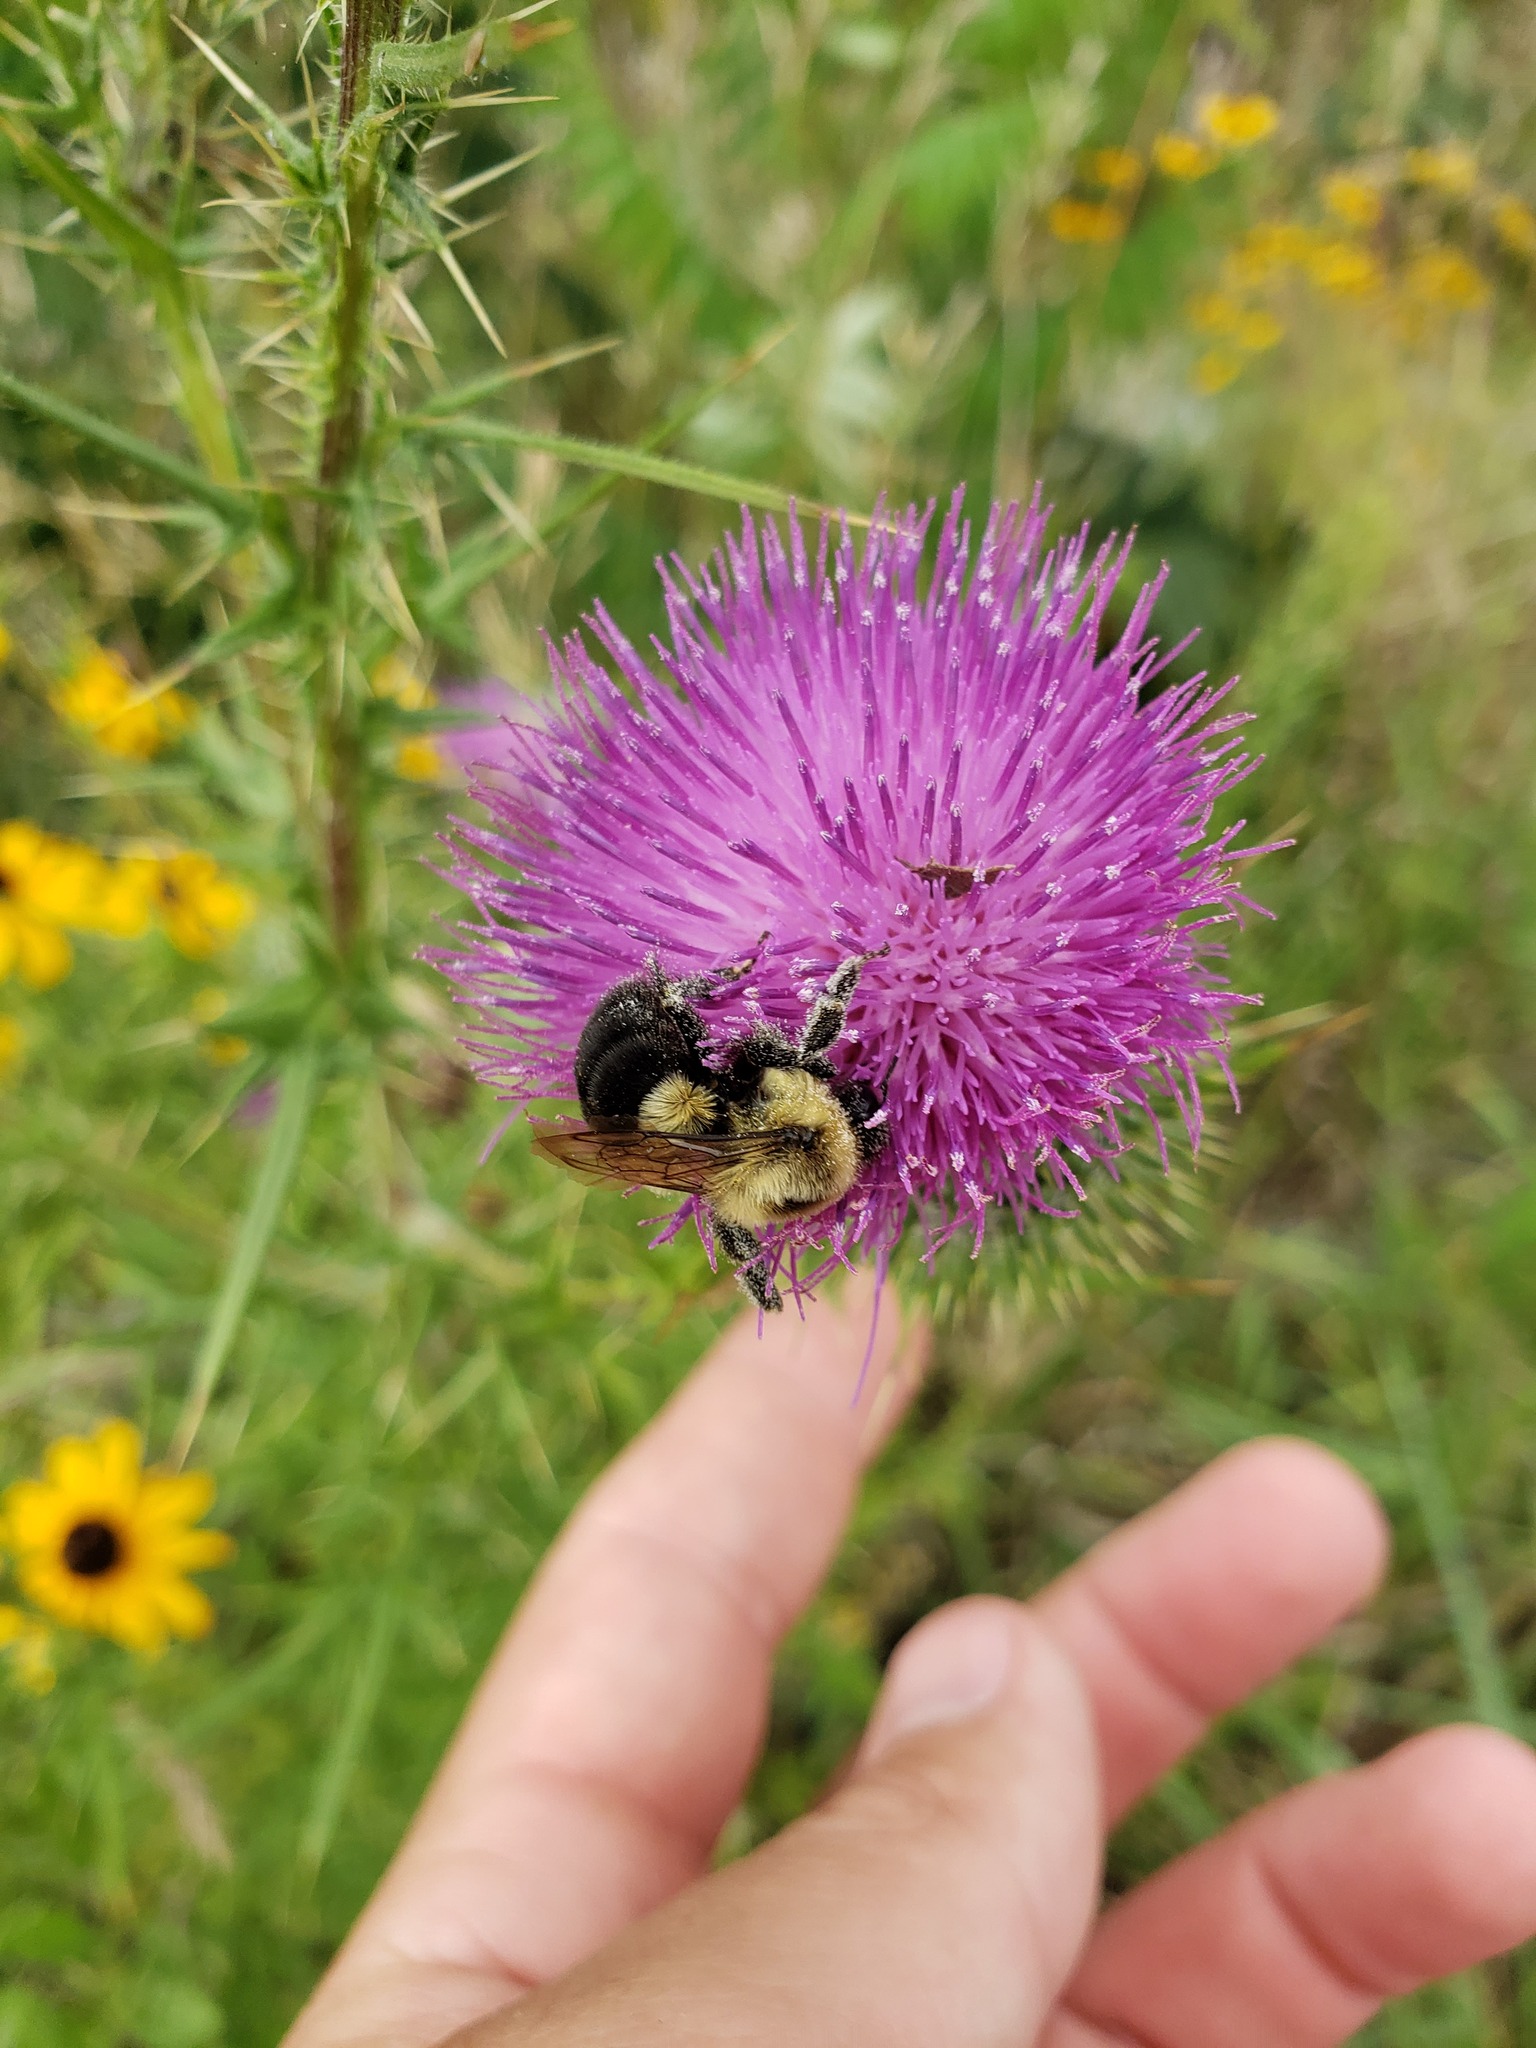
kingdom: Animalia
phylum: Arthropoda
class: Insecta
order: Hymenoptera
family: Apidae
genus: Bombus
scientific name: Bombus impatiens
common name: Common eastern bumble bee
